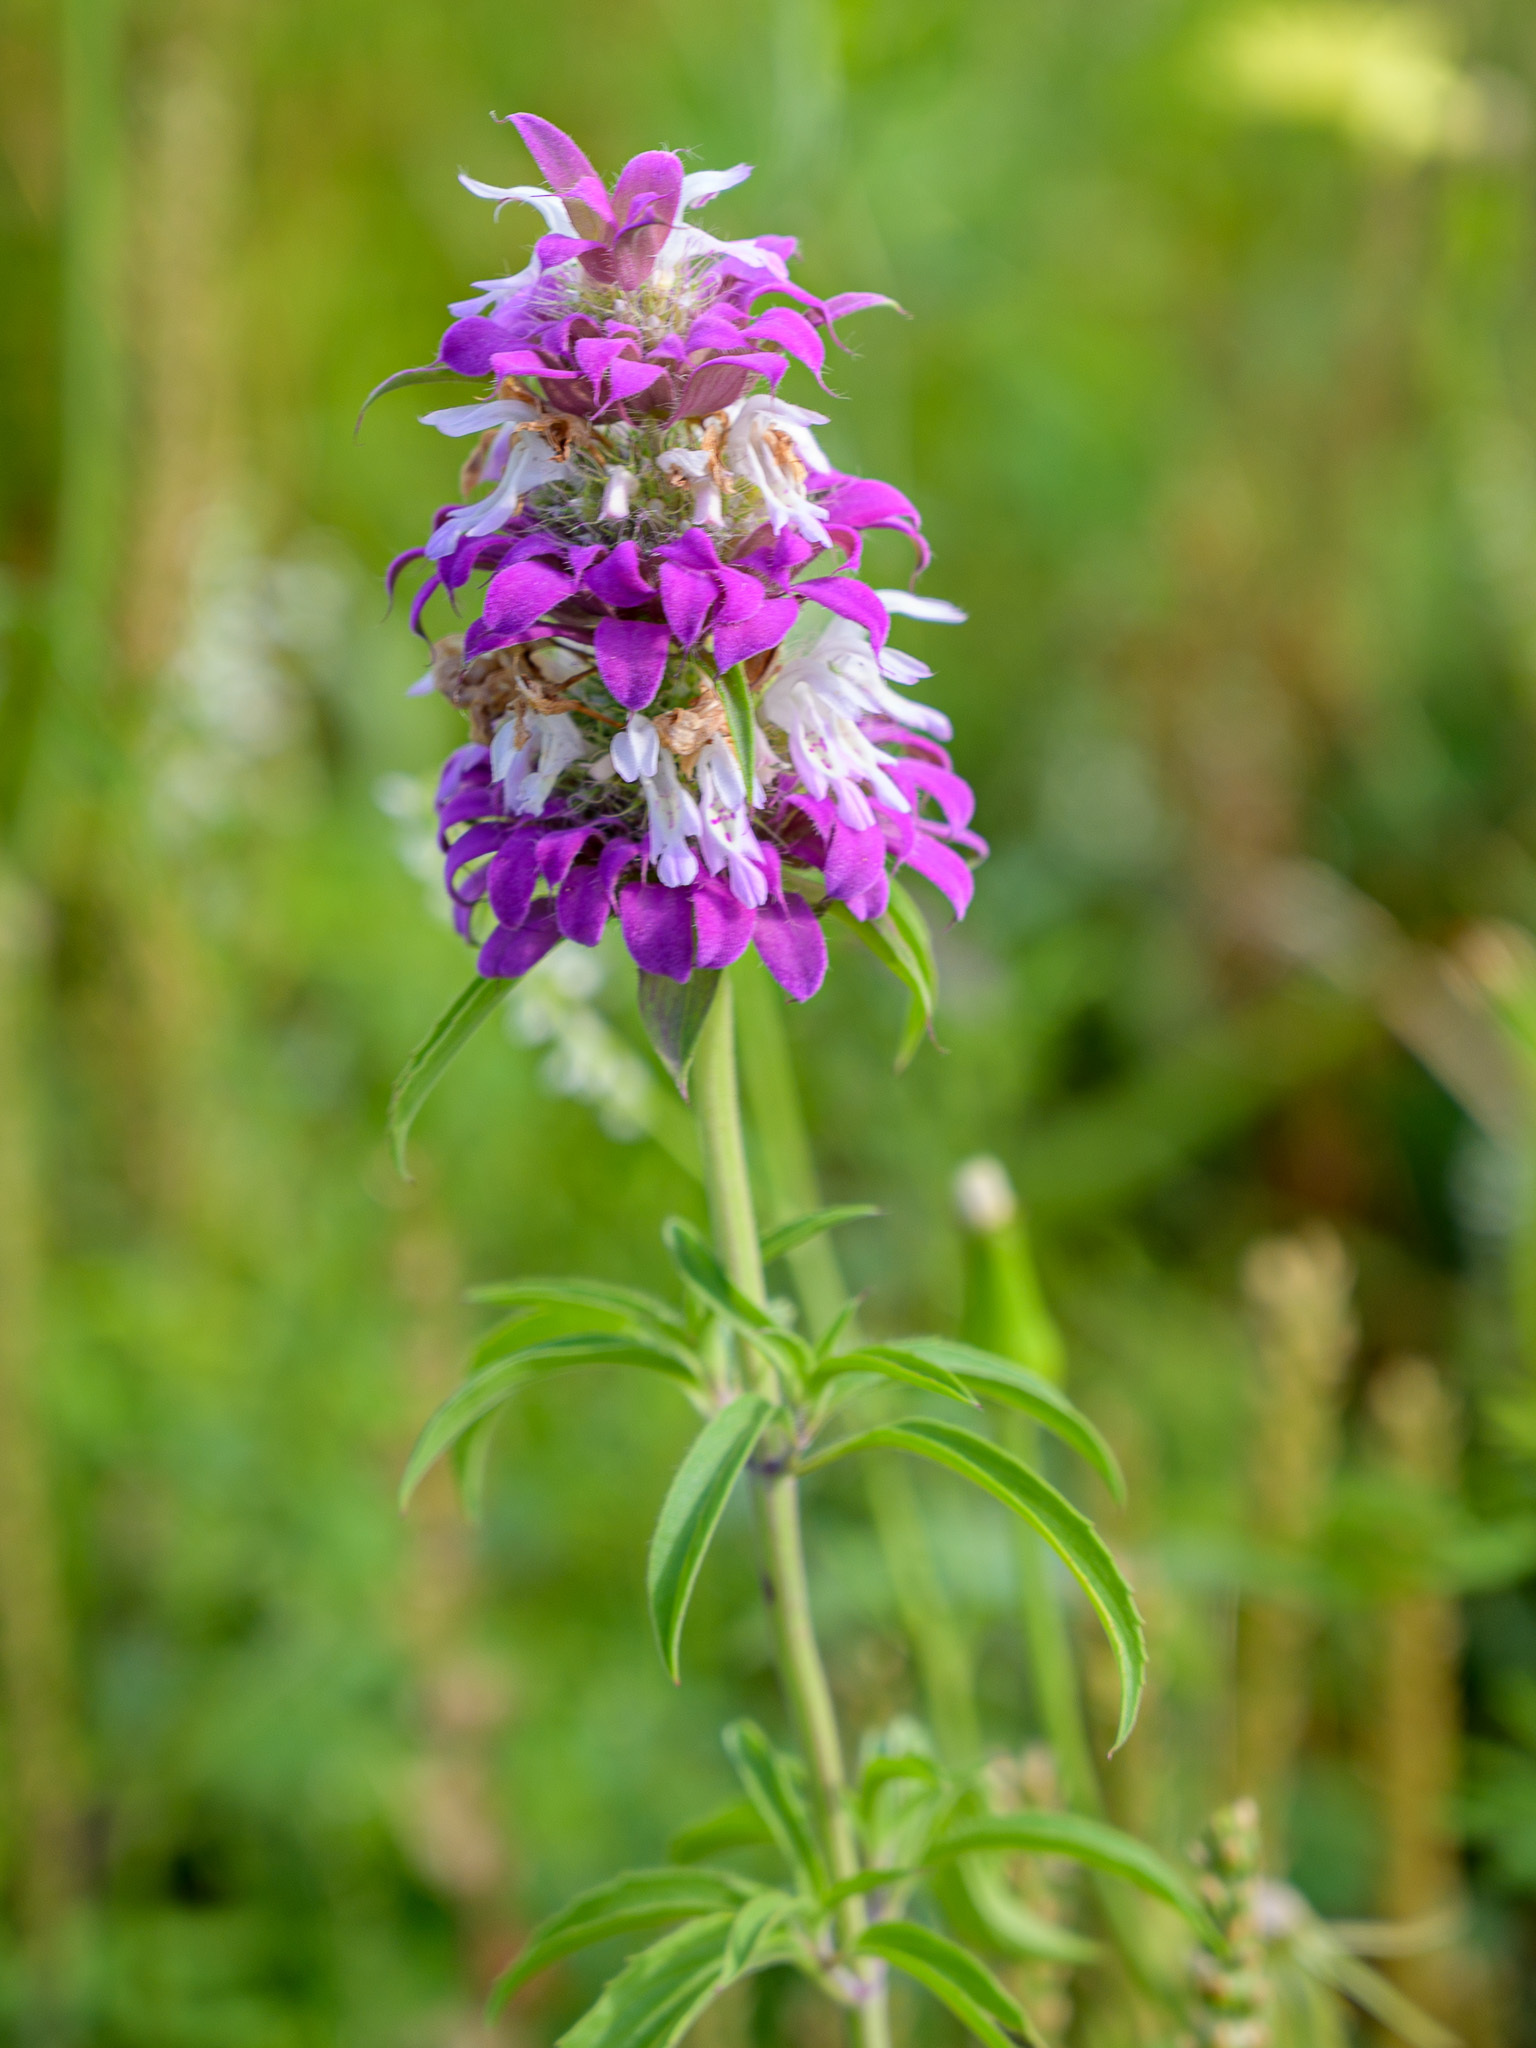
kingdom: Plantae
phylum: Tracheophyta
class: Magnoliopsida
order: Lamiales
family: Lamiaceae
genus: Monarda
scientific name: Monarda citriodora
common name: Lemon beebalm
